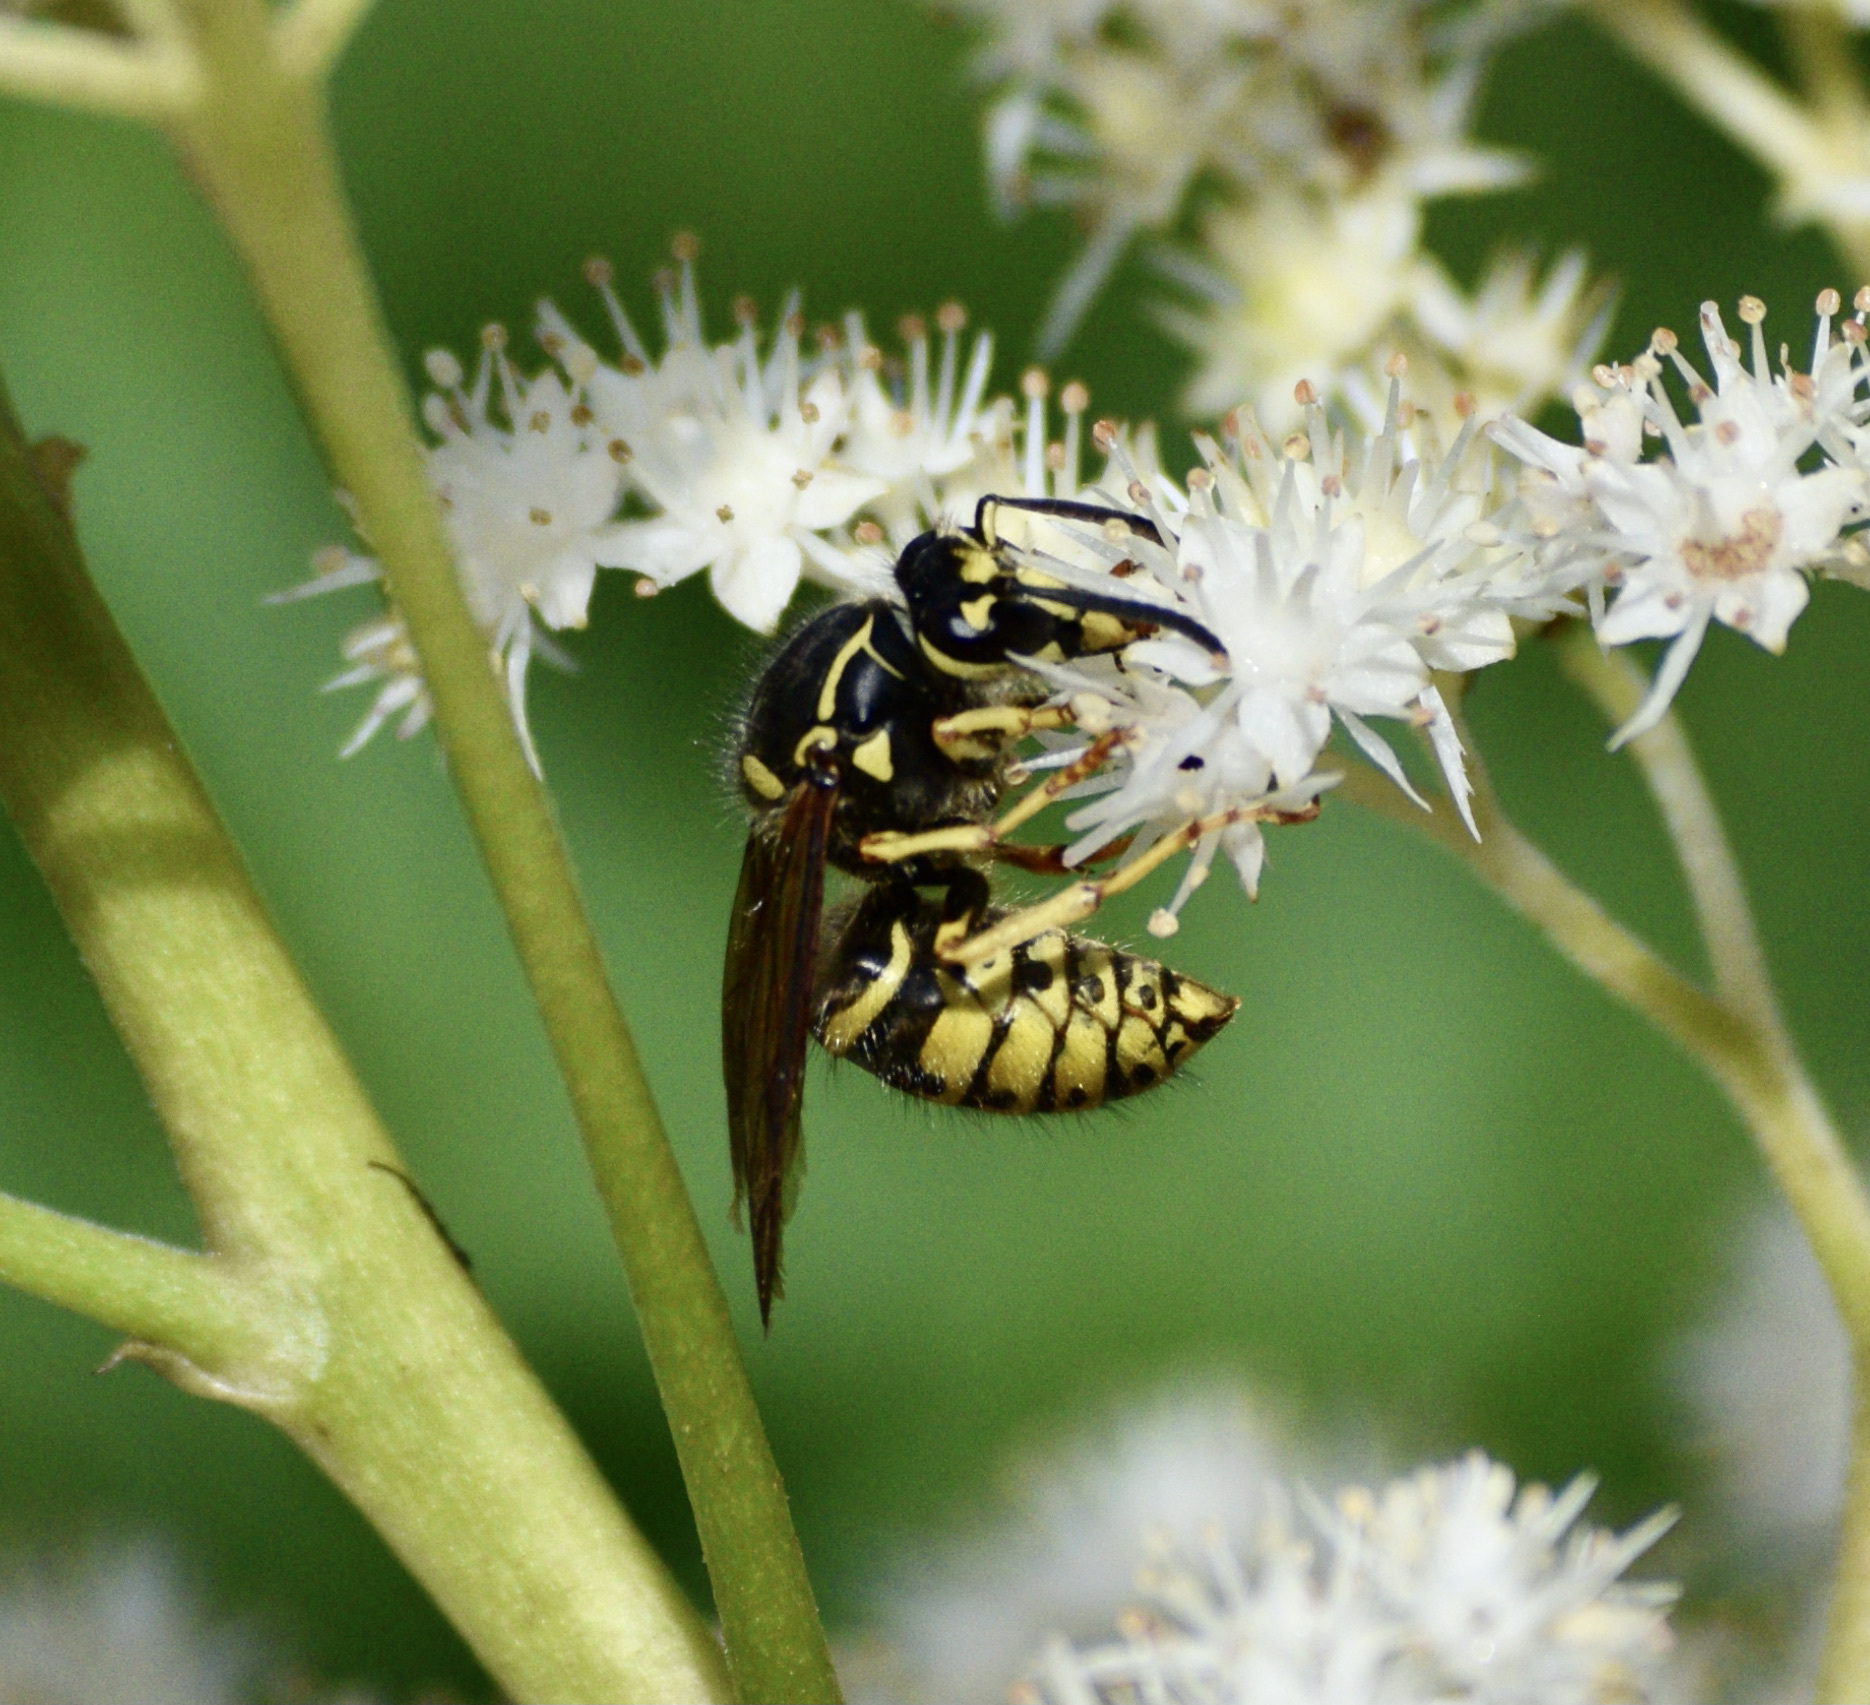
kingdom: Animalia
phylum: Arthropoda
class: Insecta
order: Hymenoptera
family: Vespidae
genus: Dolichovespula
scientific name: Dolichovespula arenaria
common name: Aerial yellowjacket
